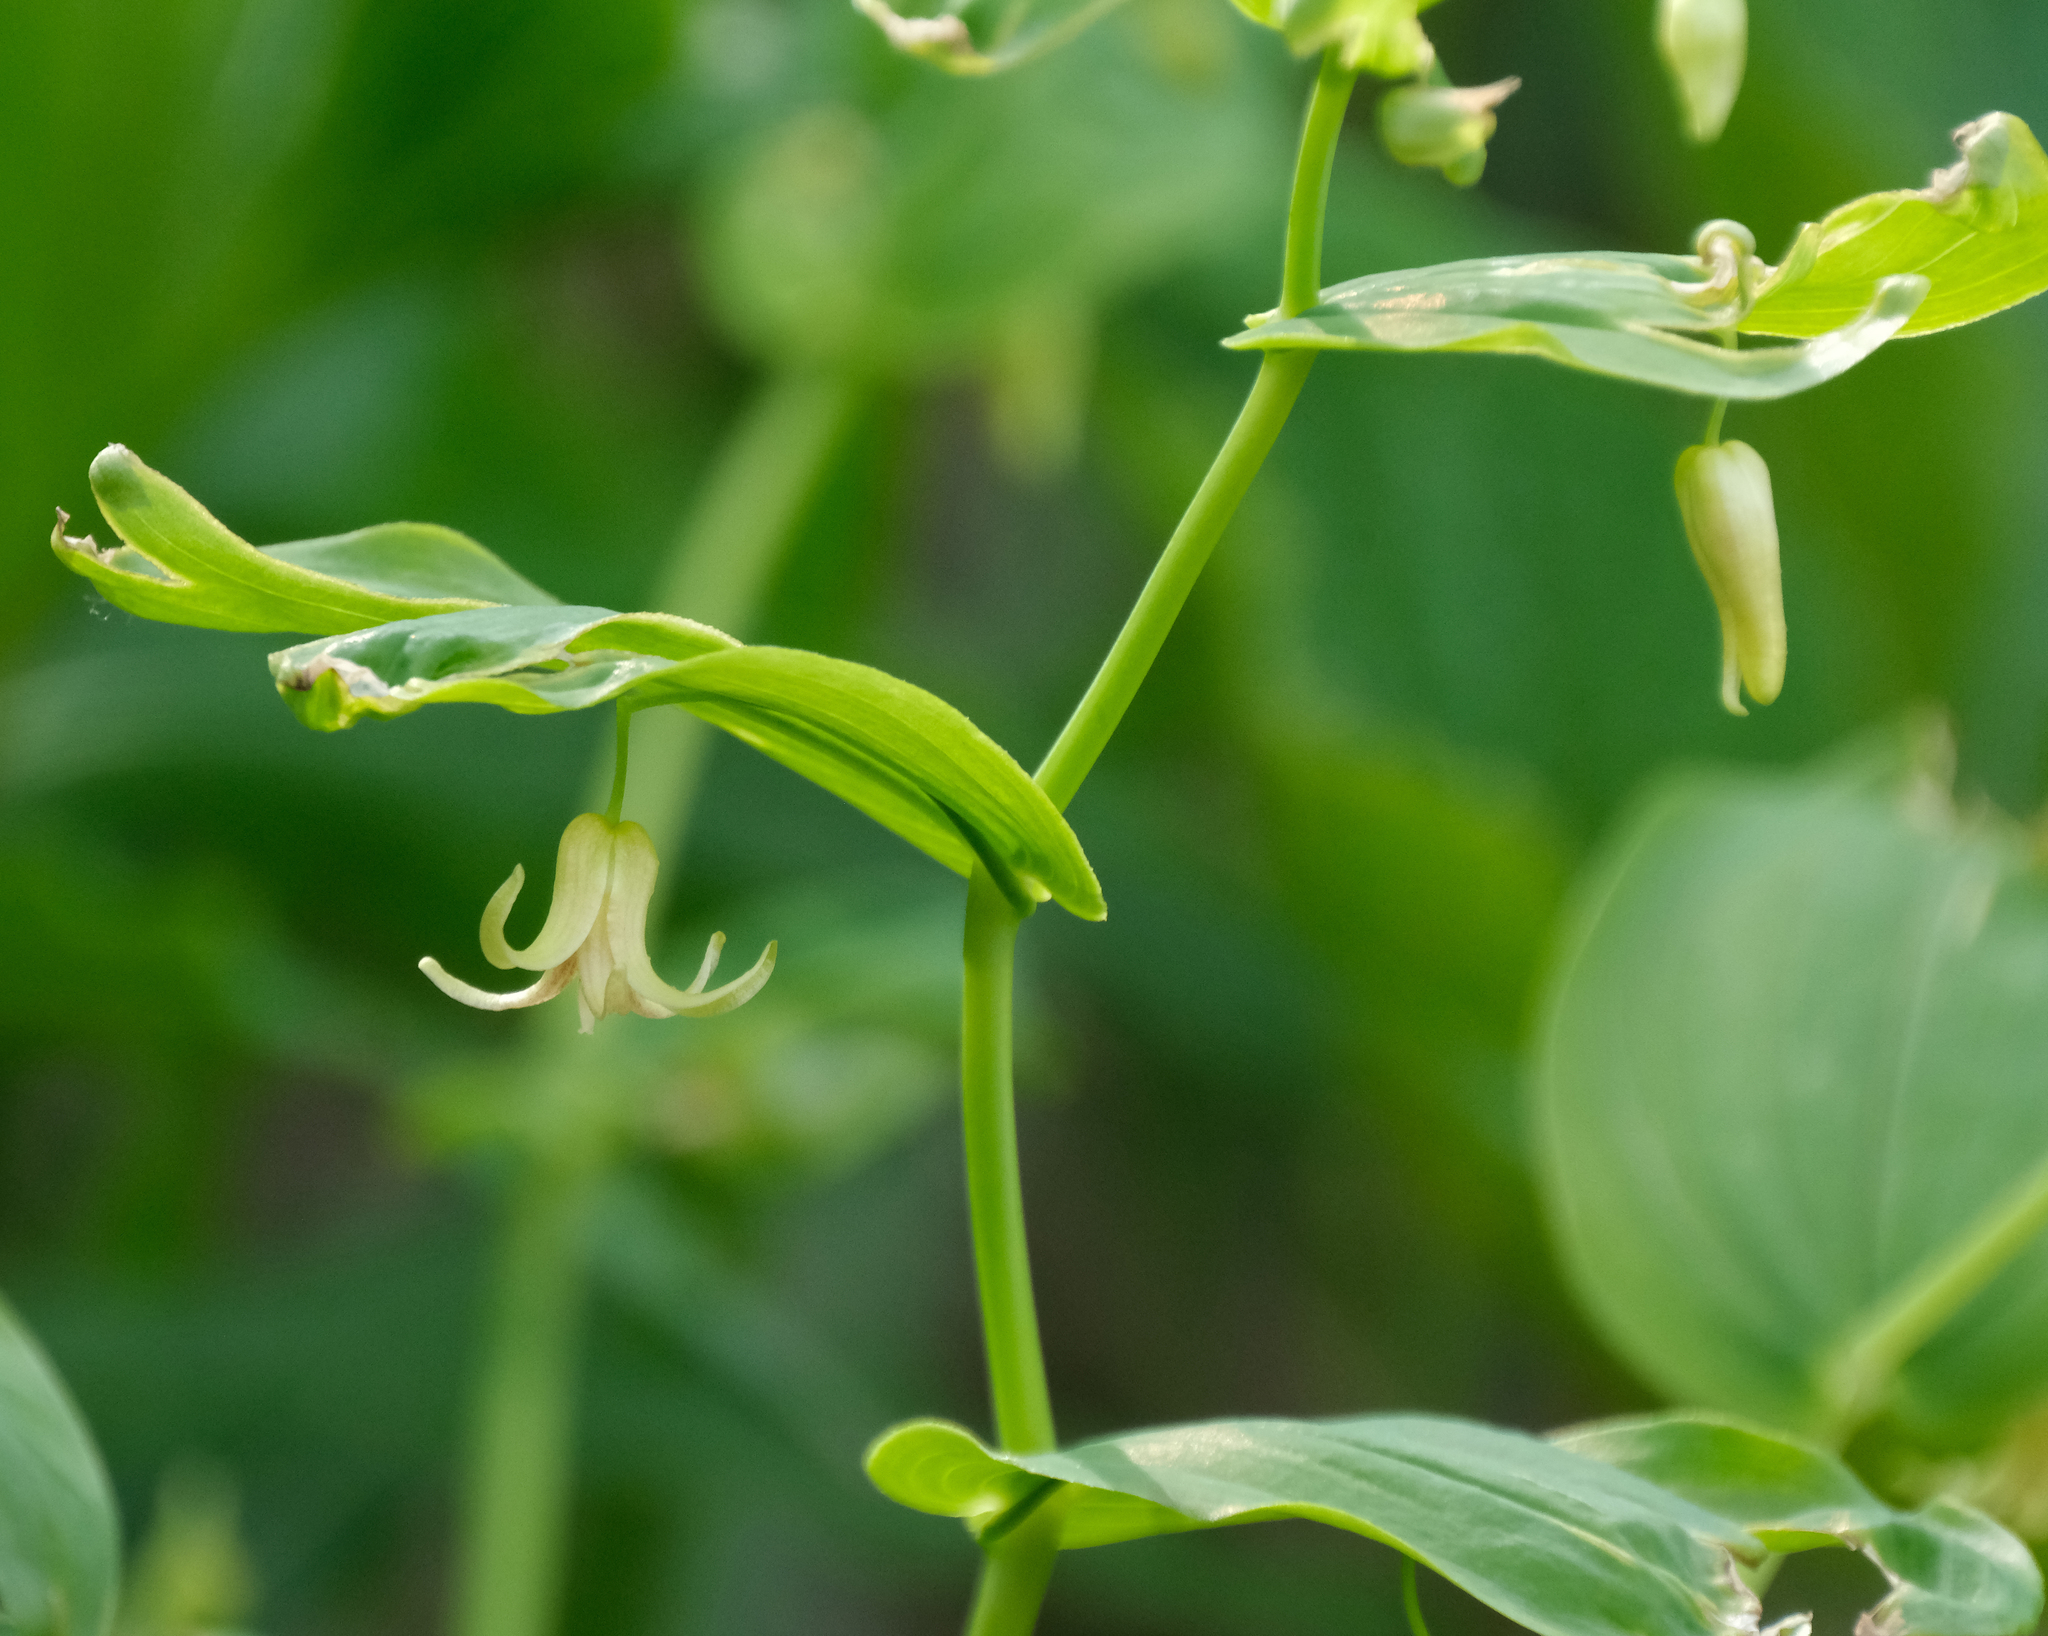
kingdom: Plantae
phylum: Tracheophyta
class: Liliopsida
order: Liliales
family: Liliaceae
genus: Streptopus
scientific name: Streptopus amplexifolius
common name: Clasp twisted stalk
